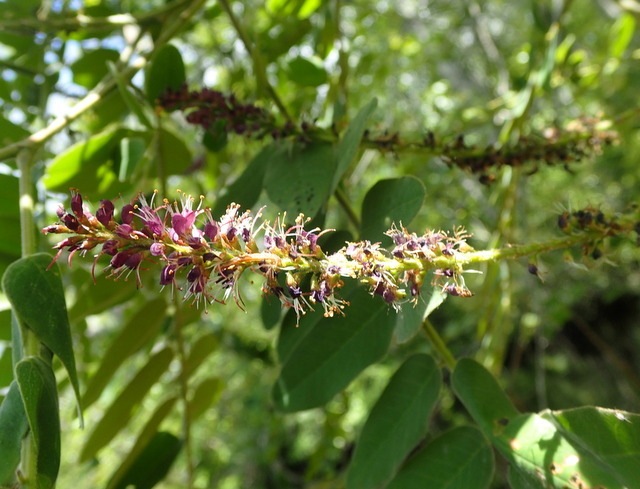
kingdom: Plantae
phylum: Tracheophyta
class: Magnoliopsida
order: Fabales
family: Fabaceae
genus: Amorpha
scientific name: Amorpha fruticosa
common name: False indigo
